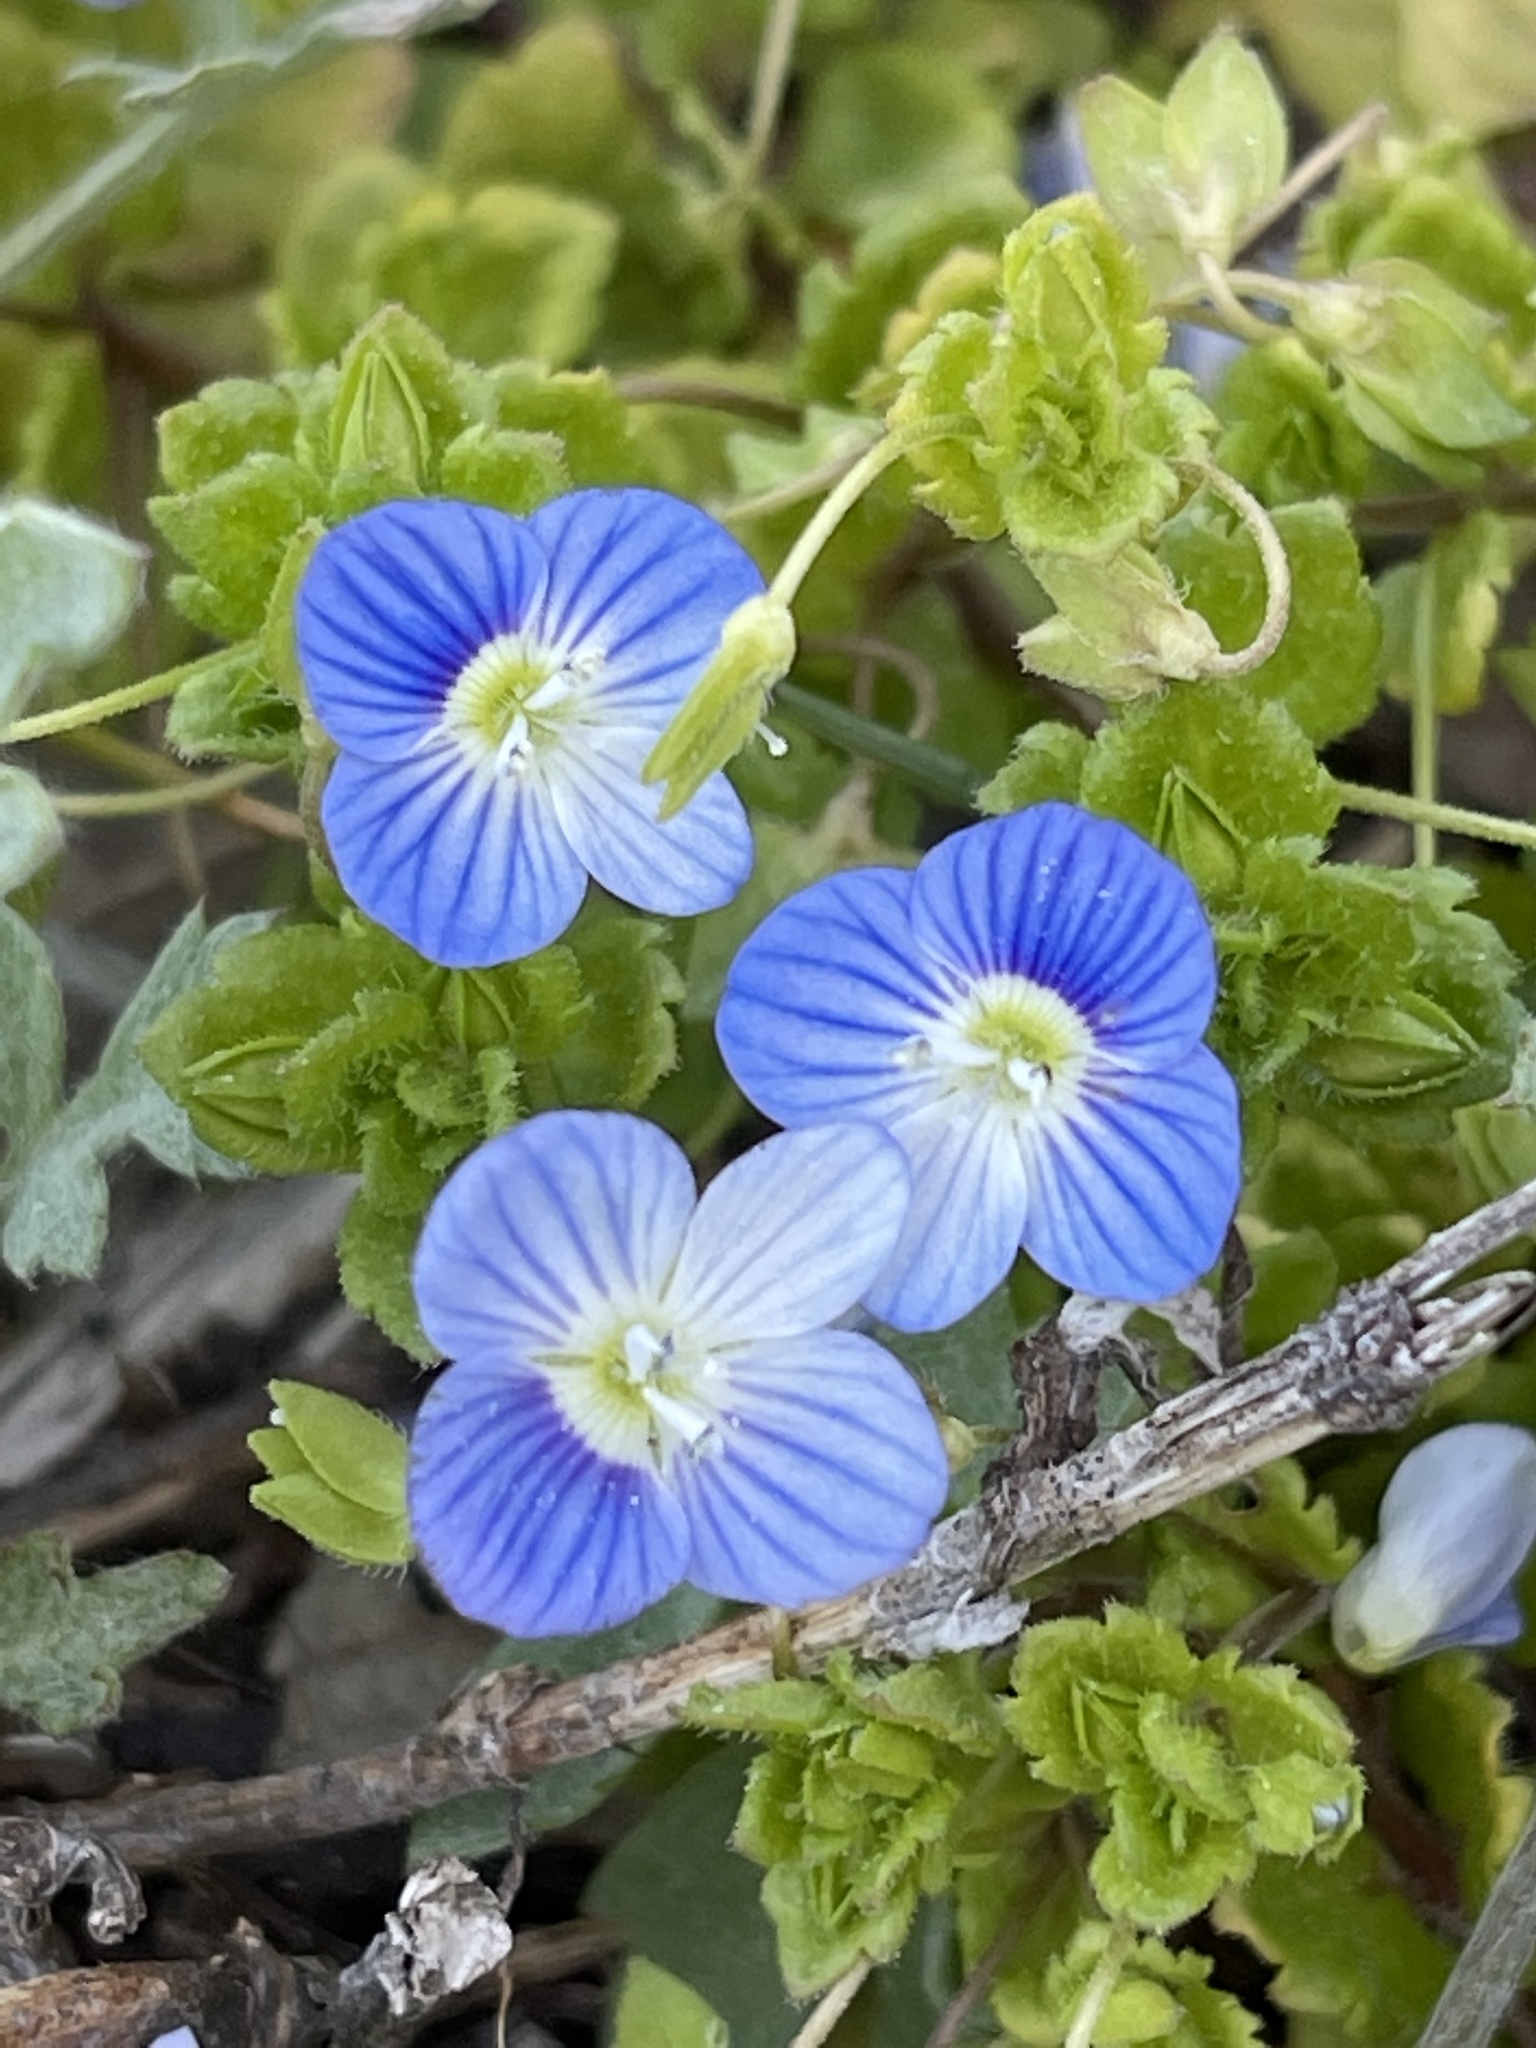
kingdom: Plantae
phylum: Tracheophyta
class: Magnoliopsida
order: Lamiales
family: Plantaginaceae
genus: Veronica
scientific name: Veronica persica
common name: Common field-speedwell
